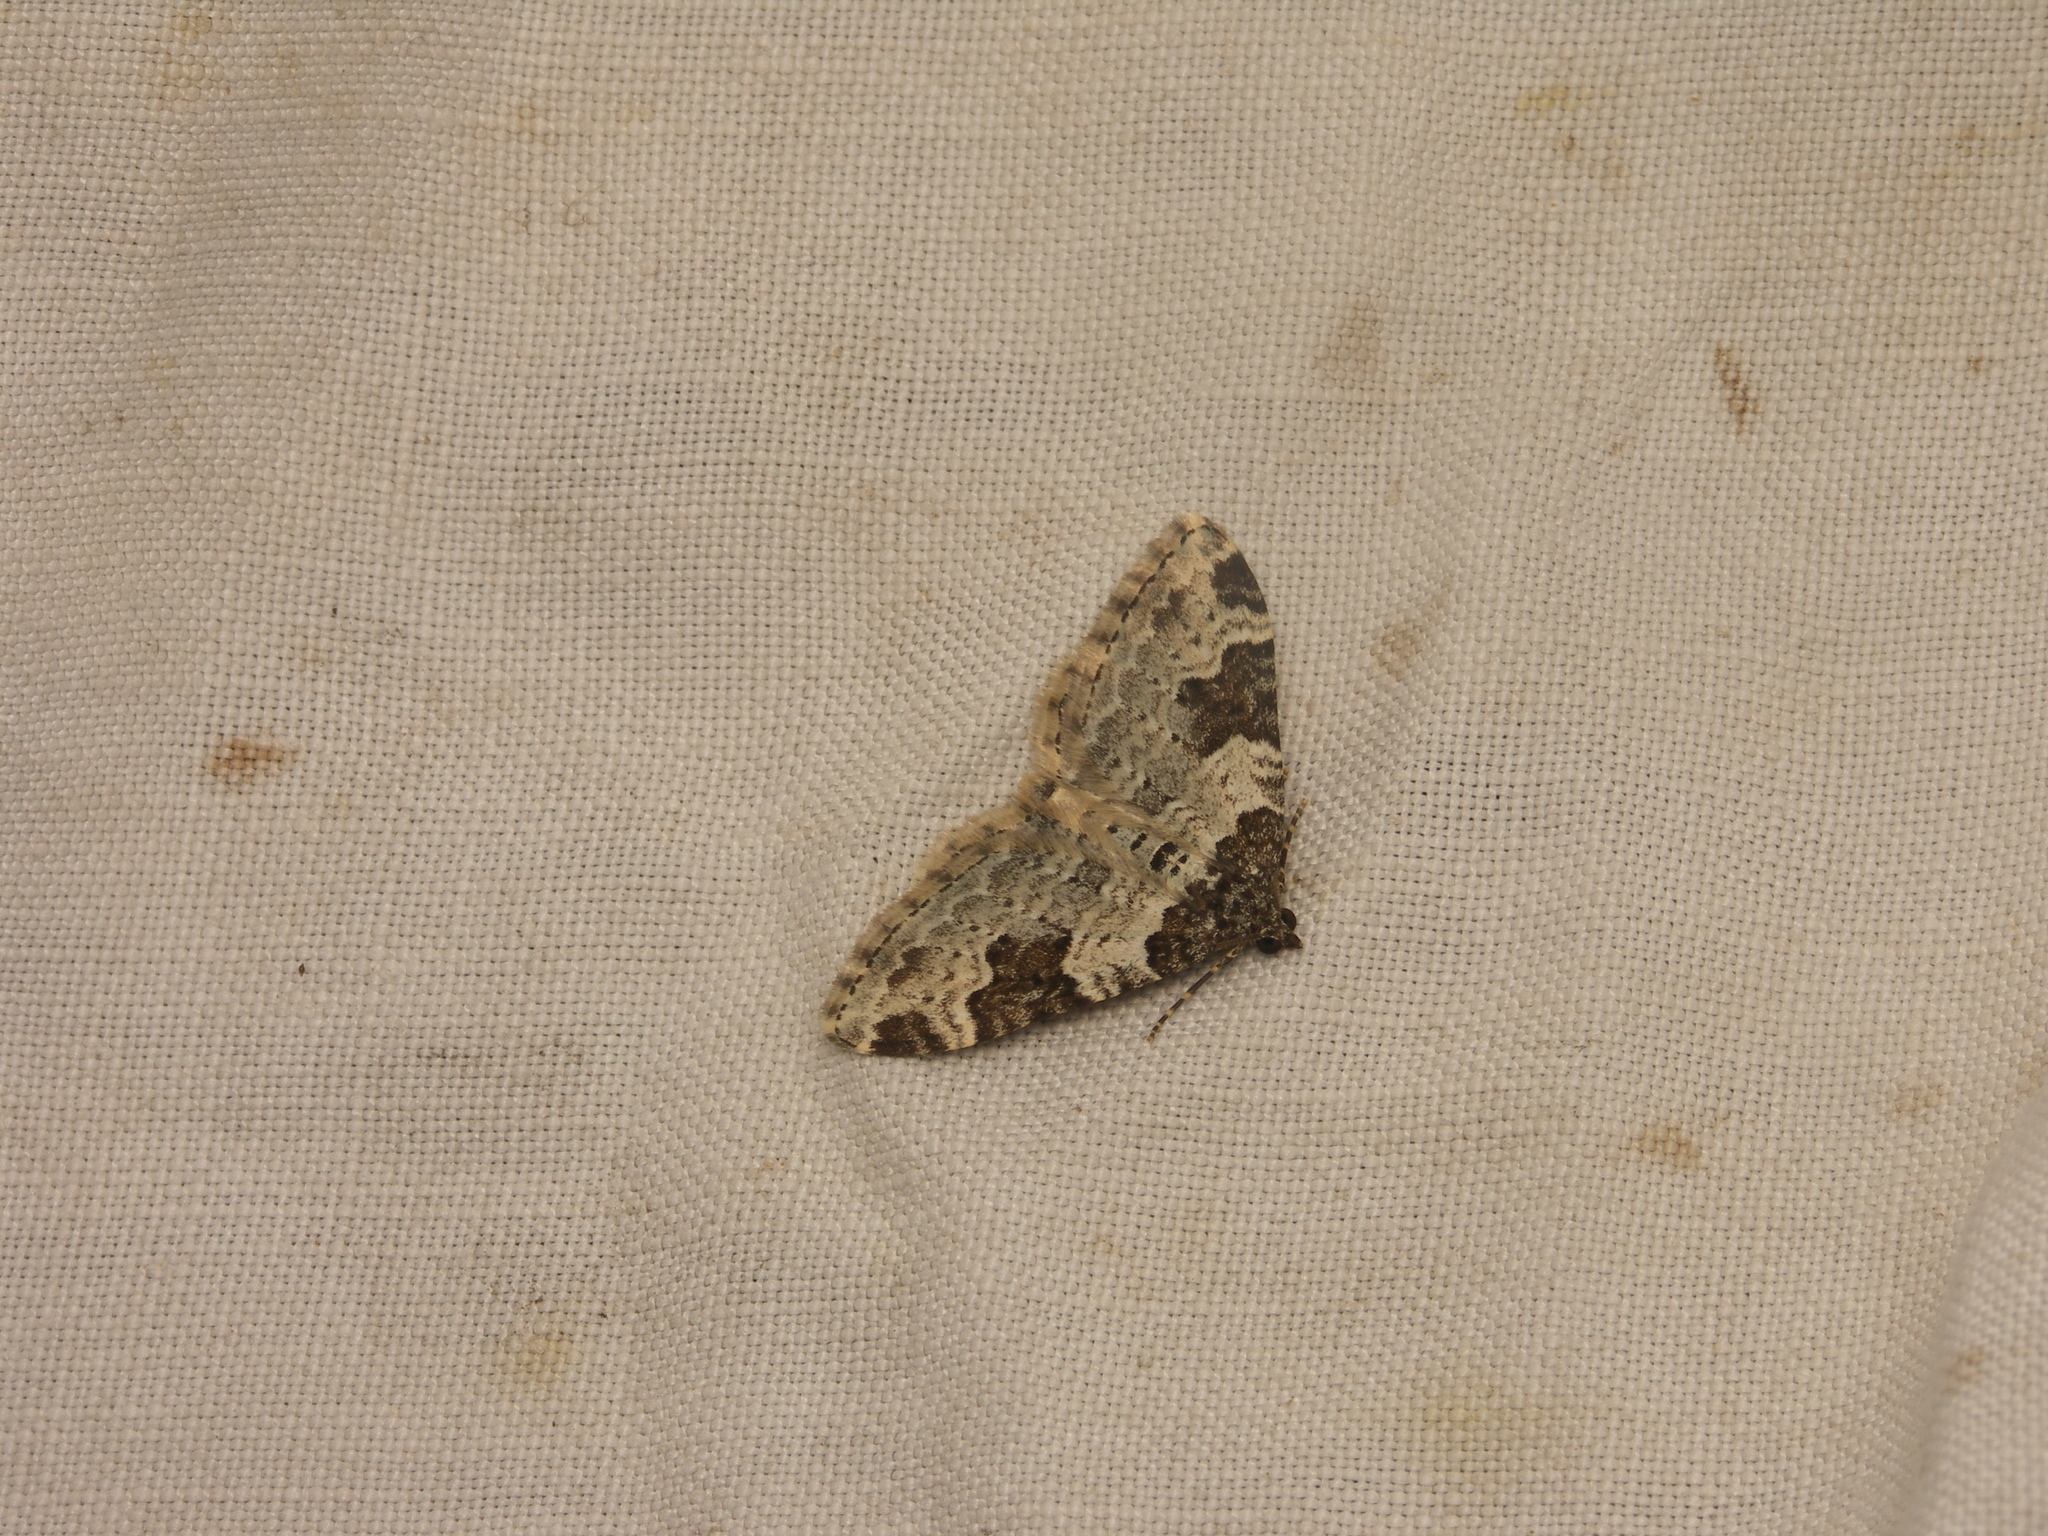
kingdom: Animalia
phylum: Arthropoda
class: Insecta
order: Lepidoptera
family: Geometridae
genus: Xanthorhoe
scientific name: Xanthorhoe fluctuata
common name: Garden carpet
